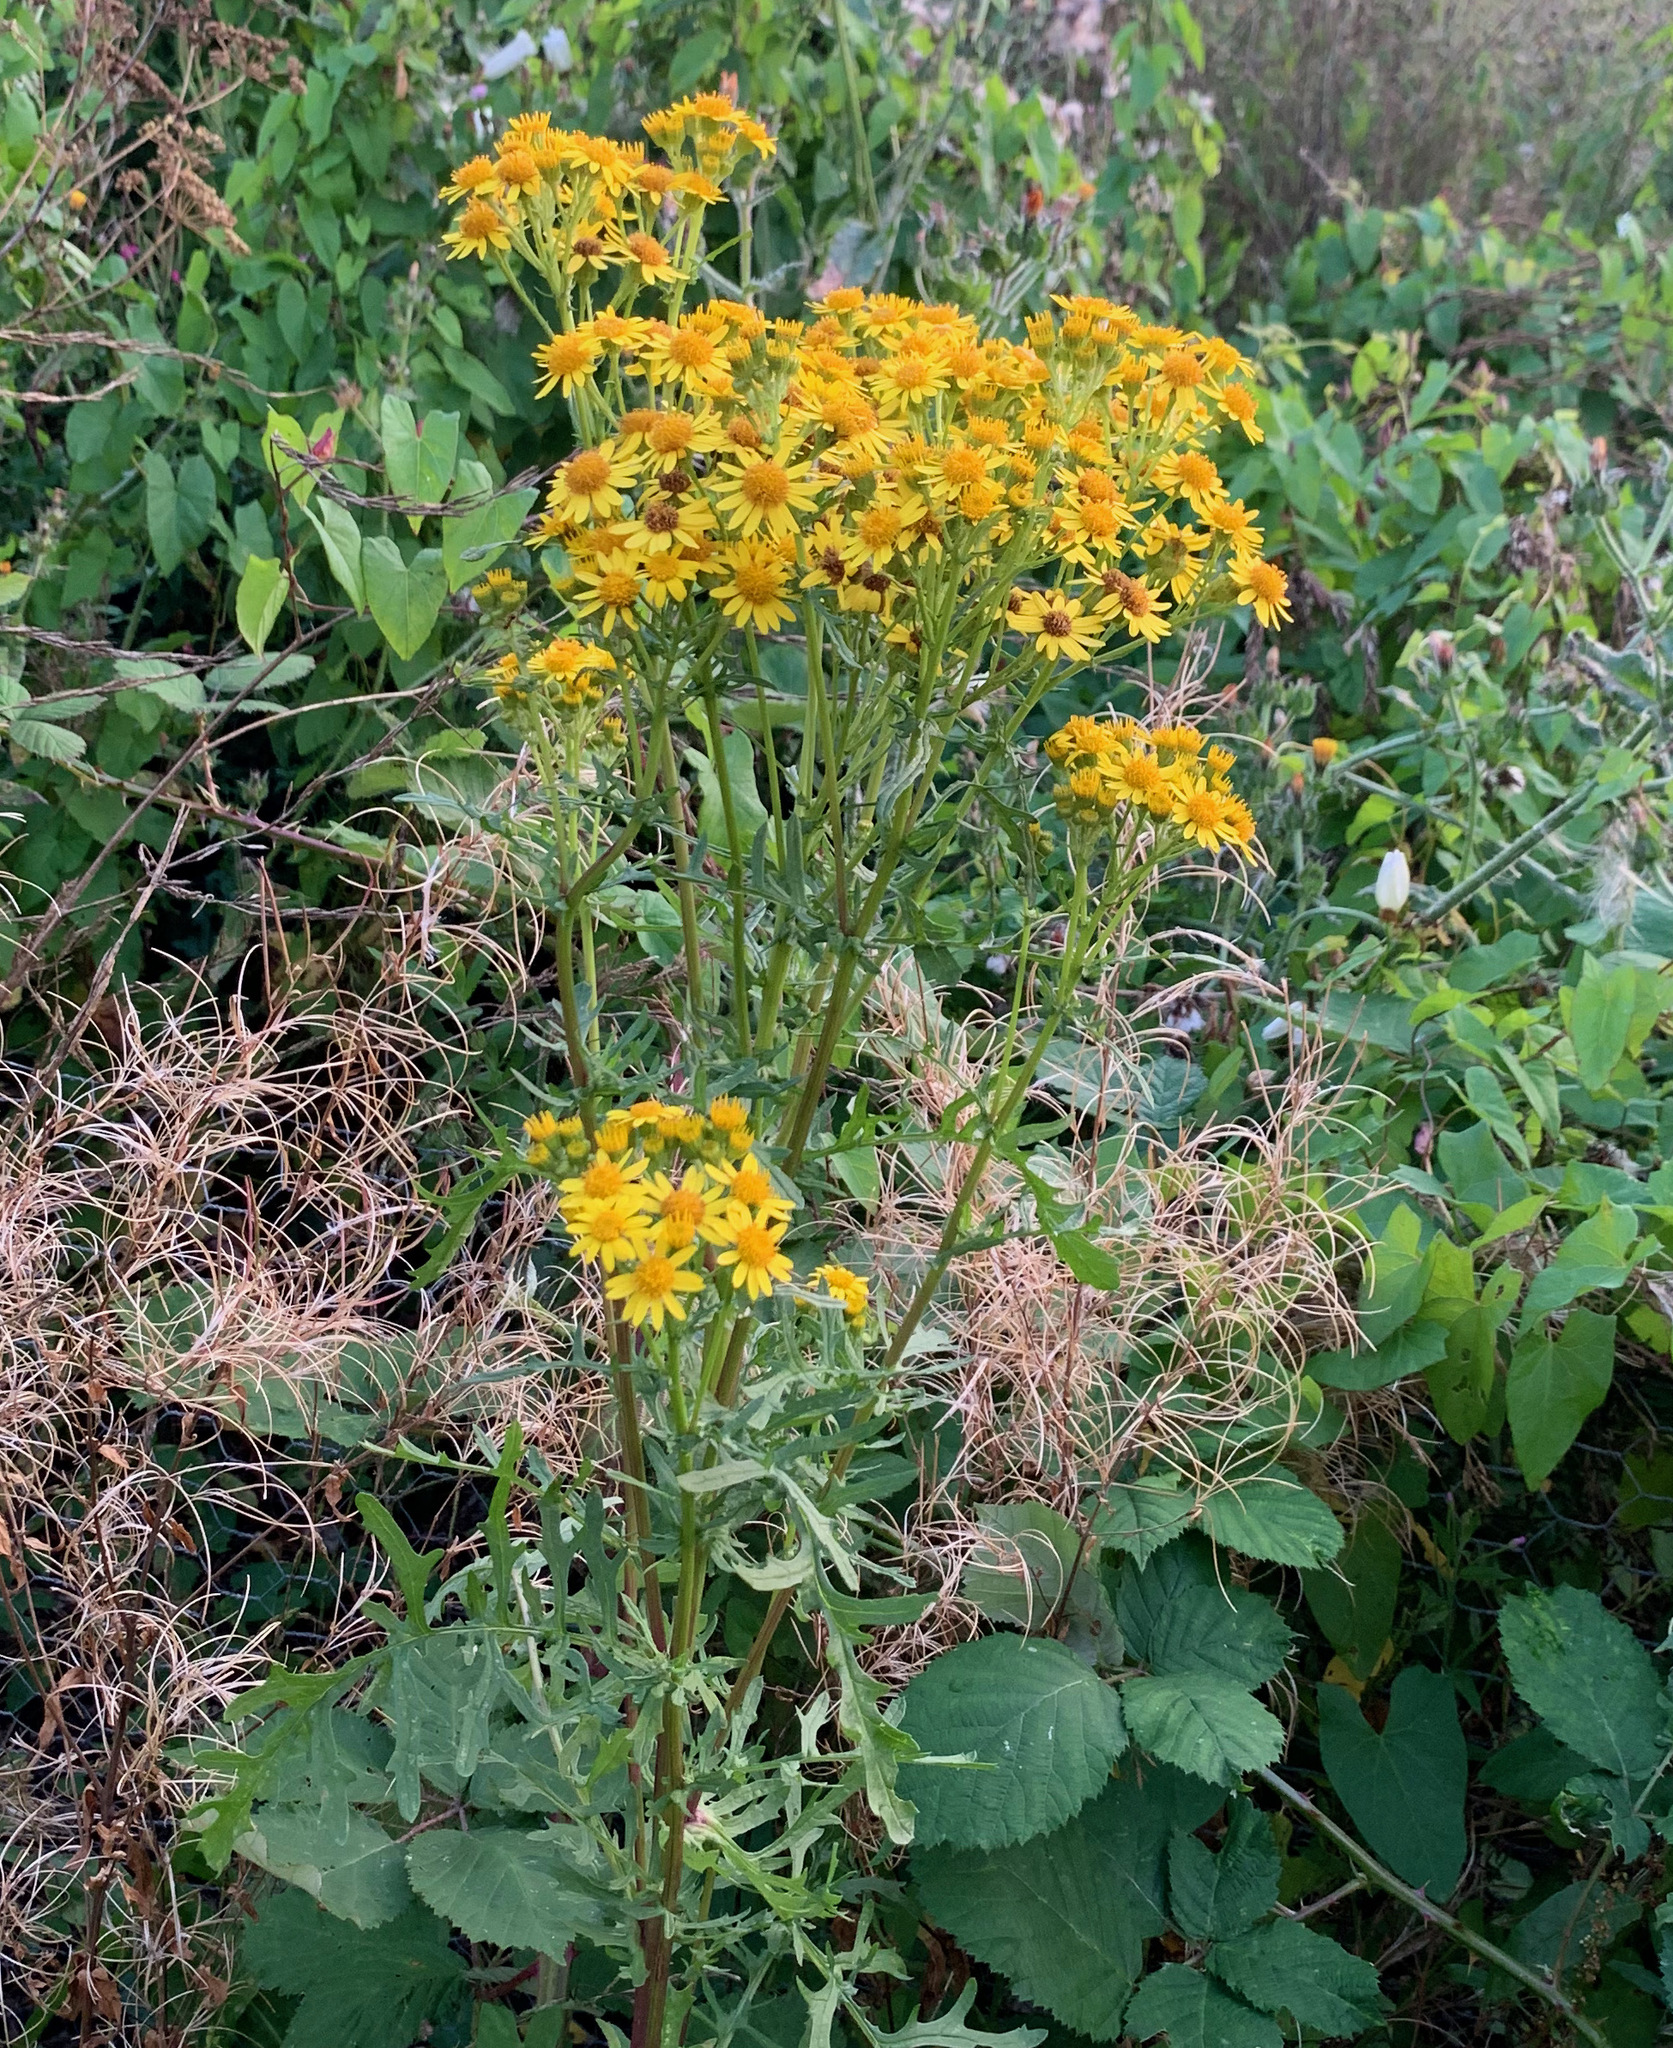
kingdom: Plantae
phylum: Tracheophyta
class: Magnoliopsida
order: Asterales
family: Asteraceae
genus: Jacobaea
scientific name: Jacobaea vulgaris
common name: Stinking willie
